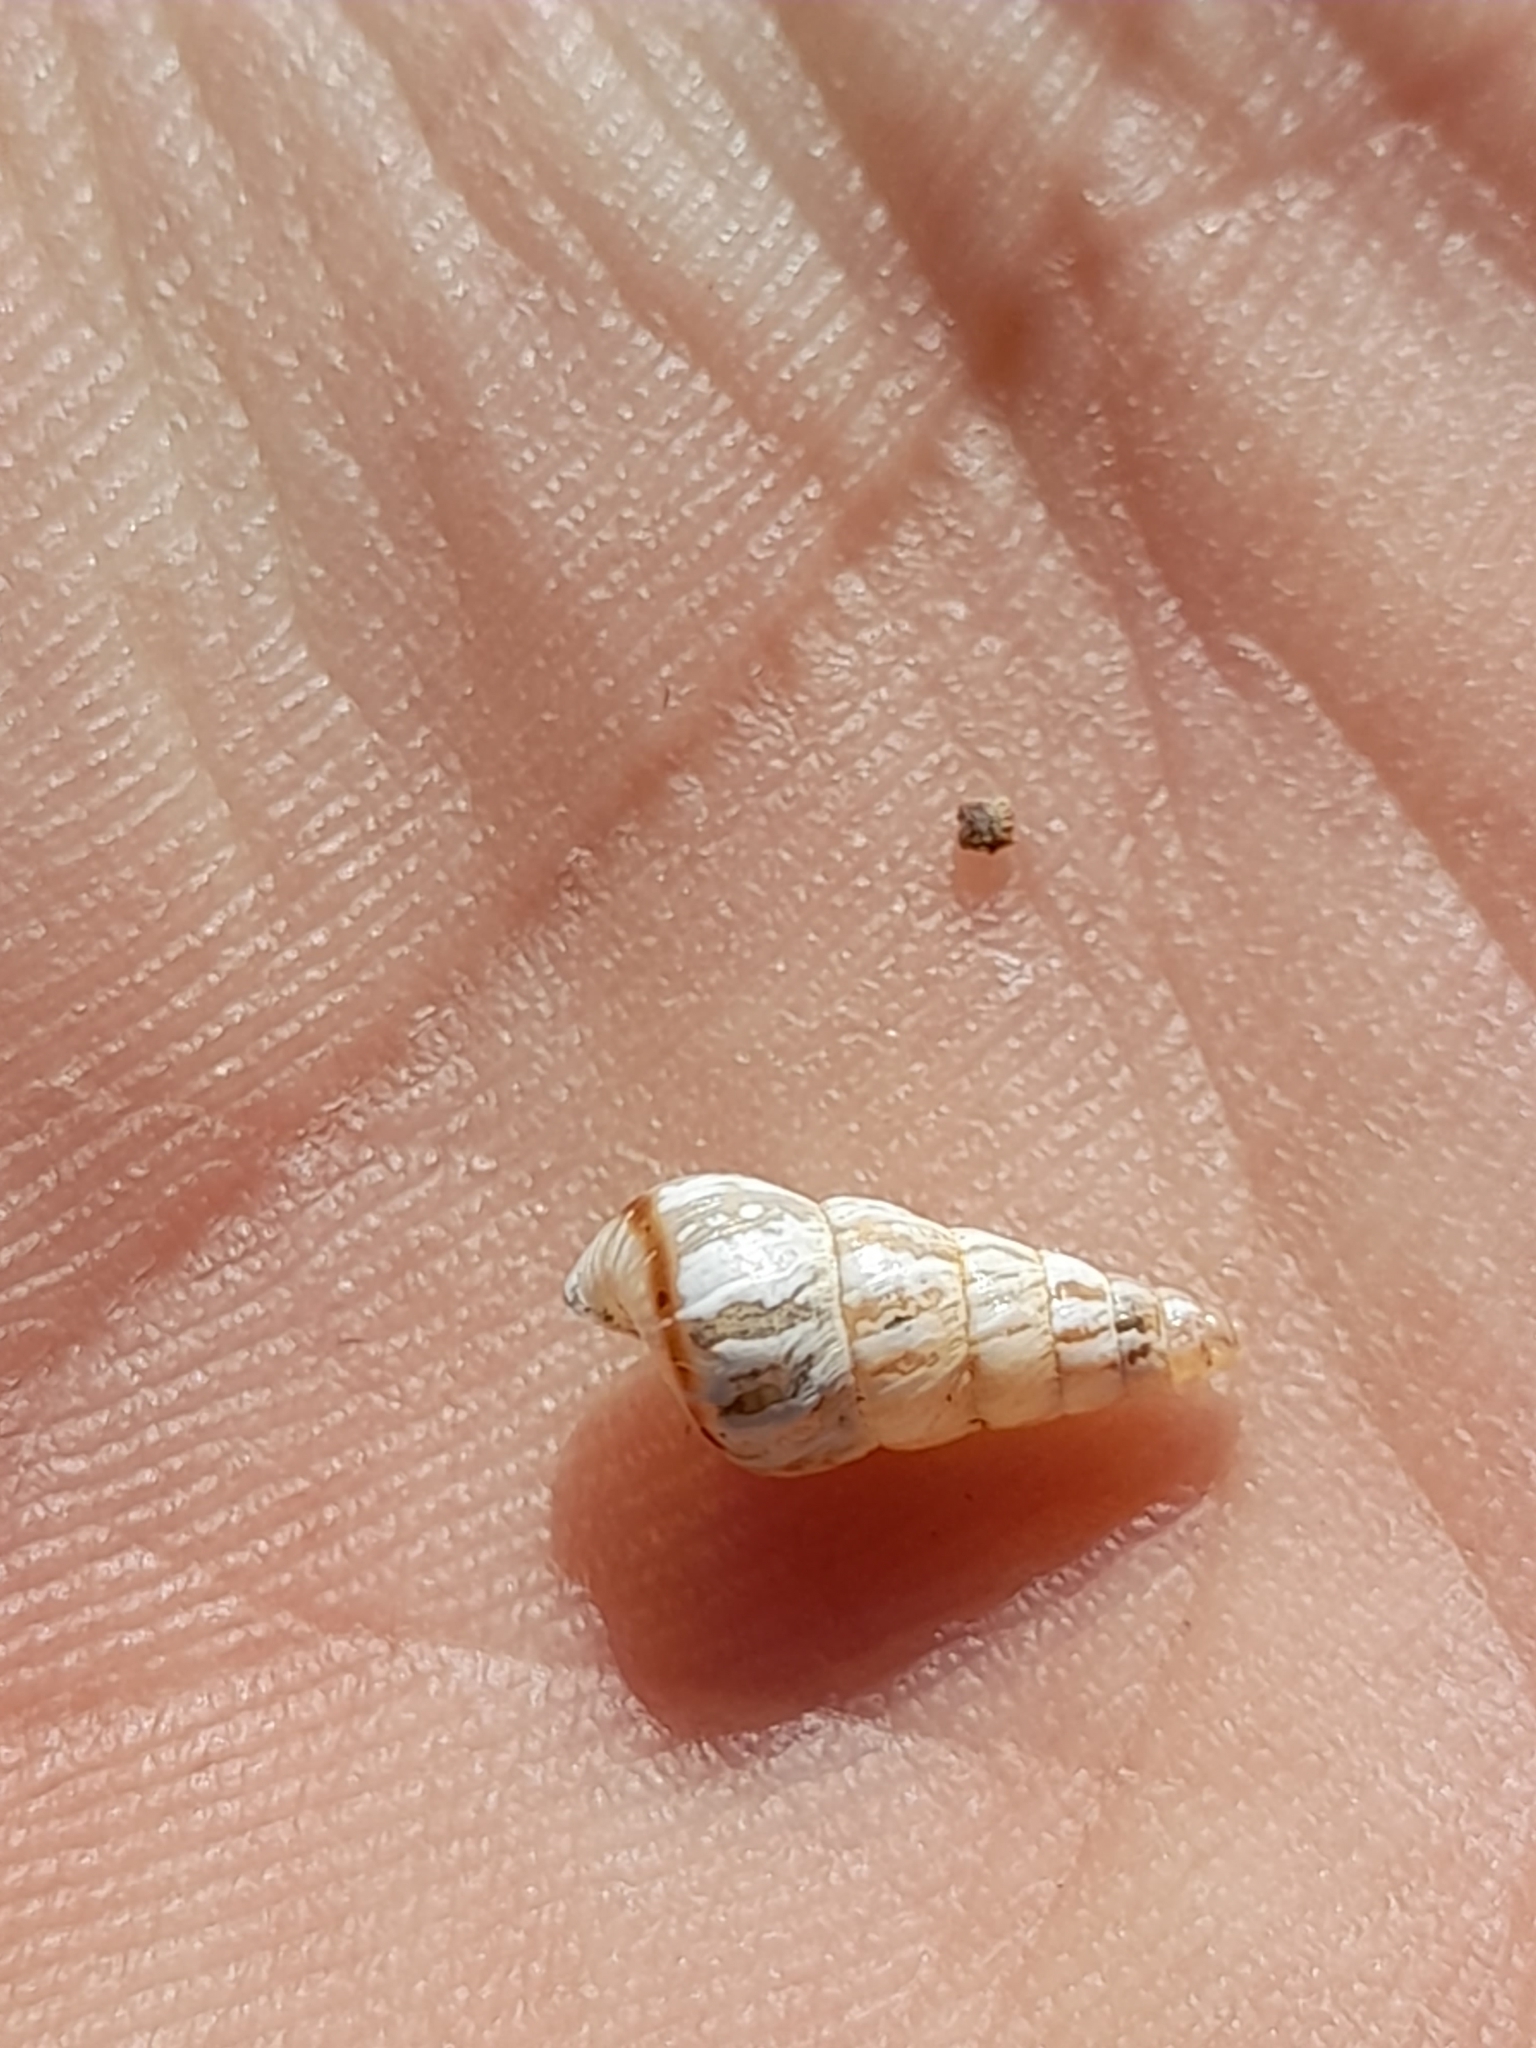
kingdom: Animalia
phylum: Mollusca
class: Gastropoda
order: Stylommatophora
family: Geomitridae
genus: Cochlicella
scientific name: Cochlicella acuta
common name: Pointed snail
